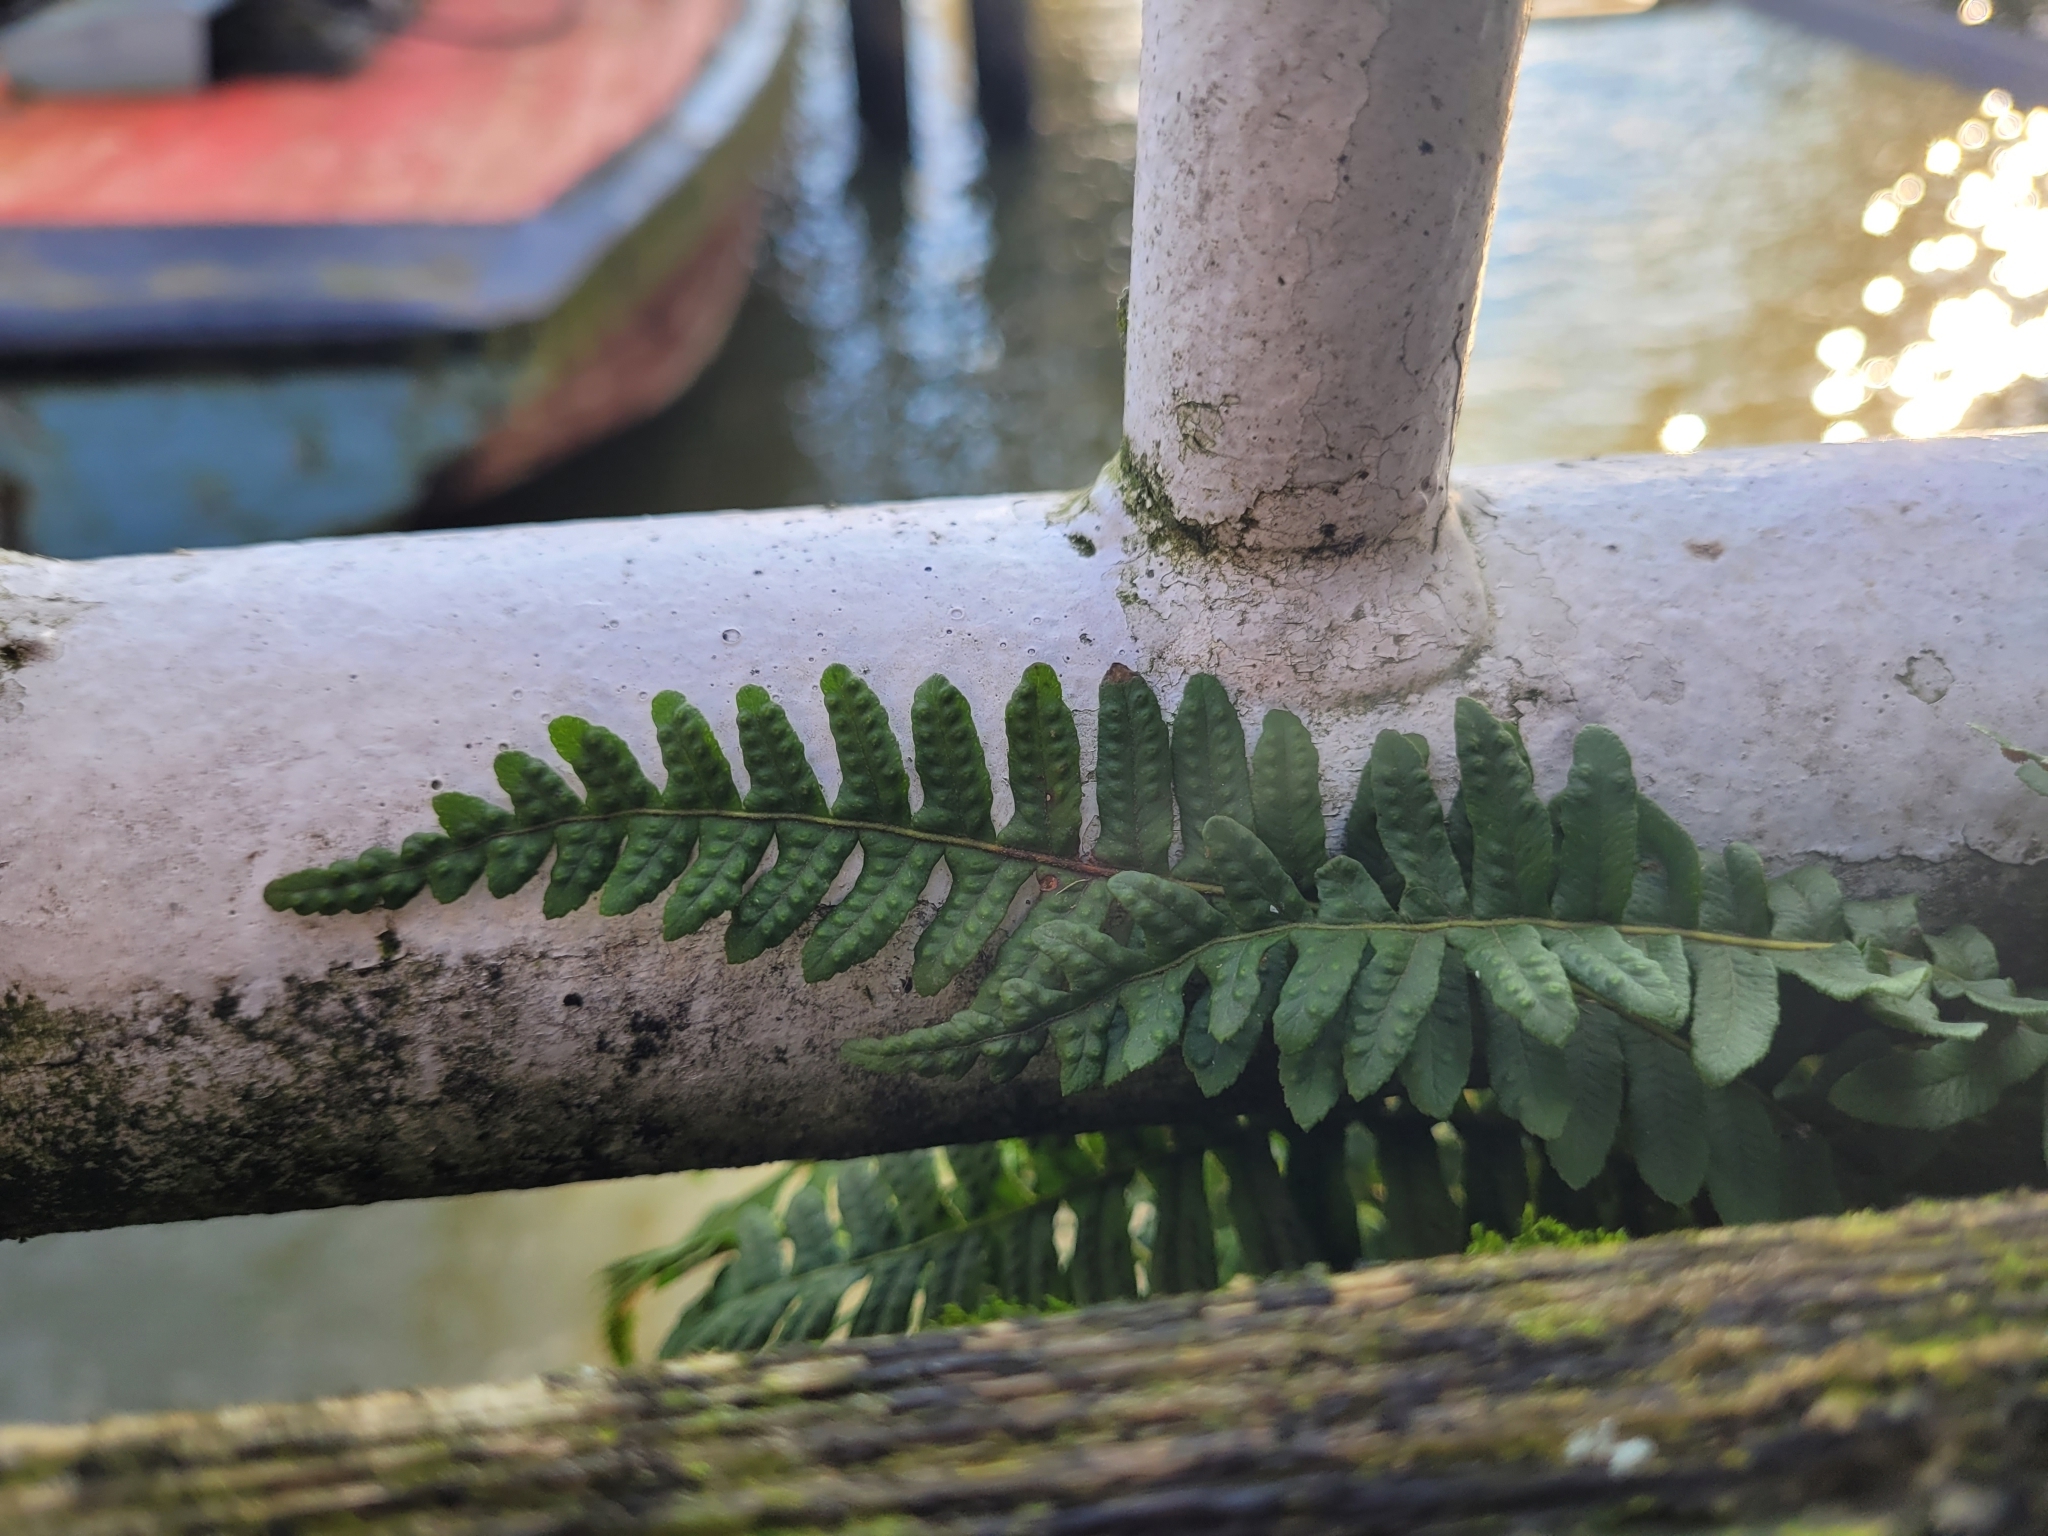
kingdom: Plantae
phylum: Tracheophyta
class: Polypodiopsida
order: Polypodiales
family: Polypodiaceae
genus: Polypodium
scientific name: Polypodium glycyrrhiza
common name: Licorice fern
